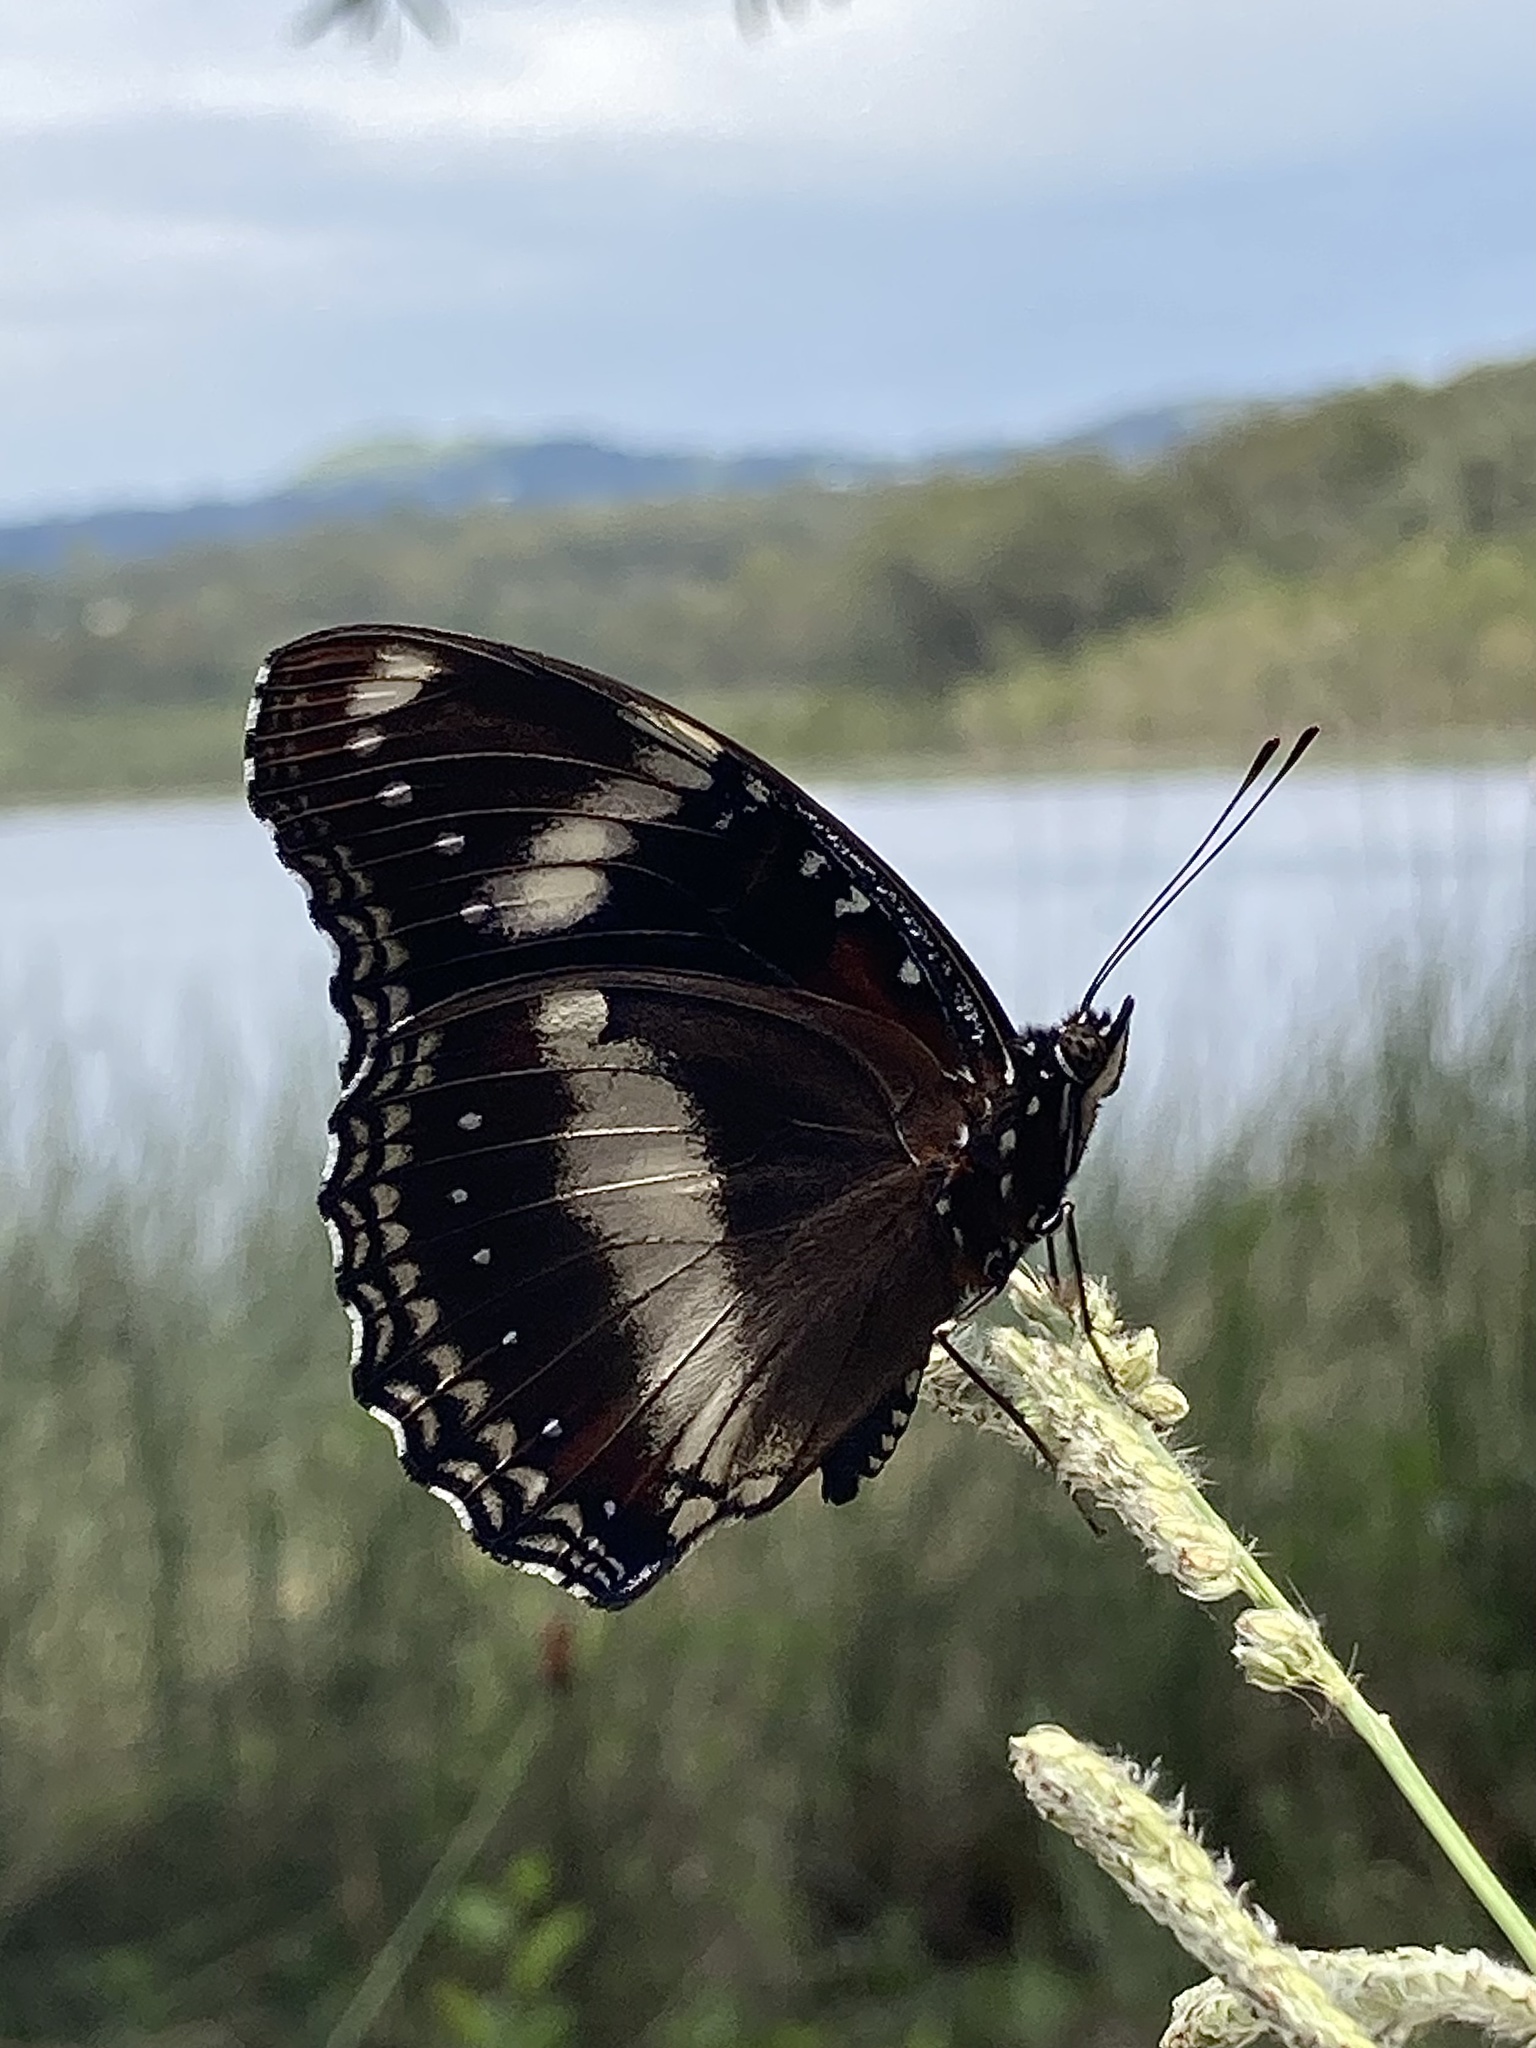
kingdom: Animalia
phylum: Arthropoda
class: Insecta
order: Lepidoptera
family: Nymphalidae
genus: Hypolimnas
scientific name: Hypolimnas bolina
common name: Great eggfly
